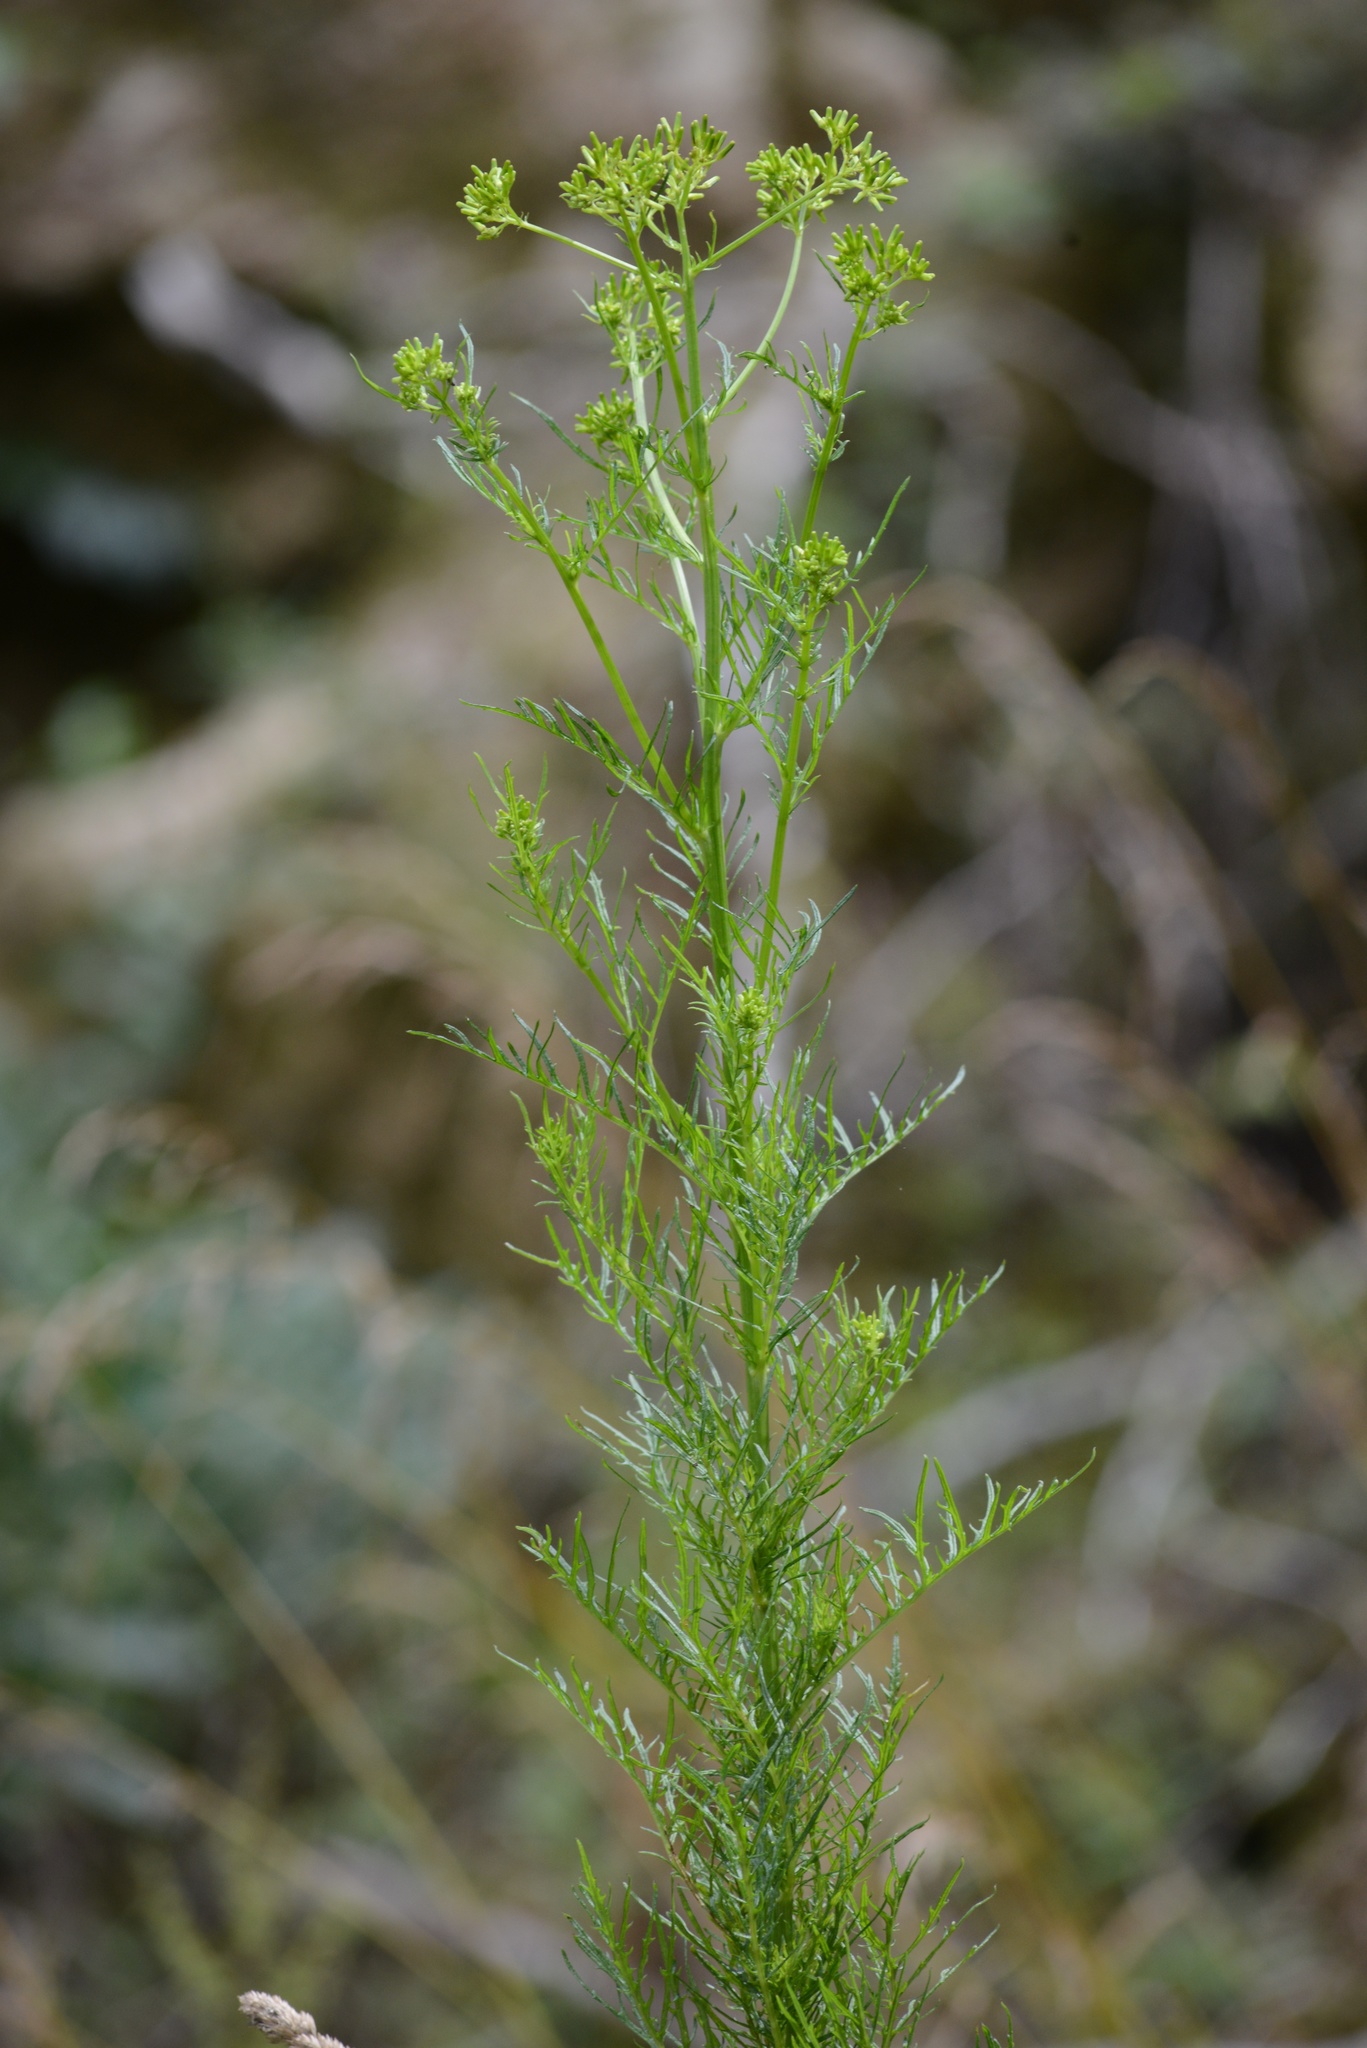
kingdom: Plantae
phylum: Tracheophyta
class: Magnoliopsida
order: Asterales
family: Asteraceae
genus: Senecio
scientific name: Senecio bipinnatisectus
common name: Australian fireweed
